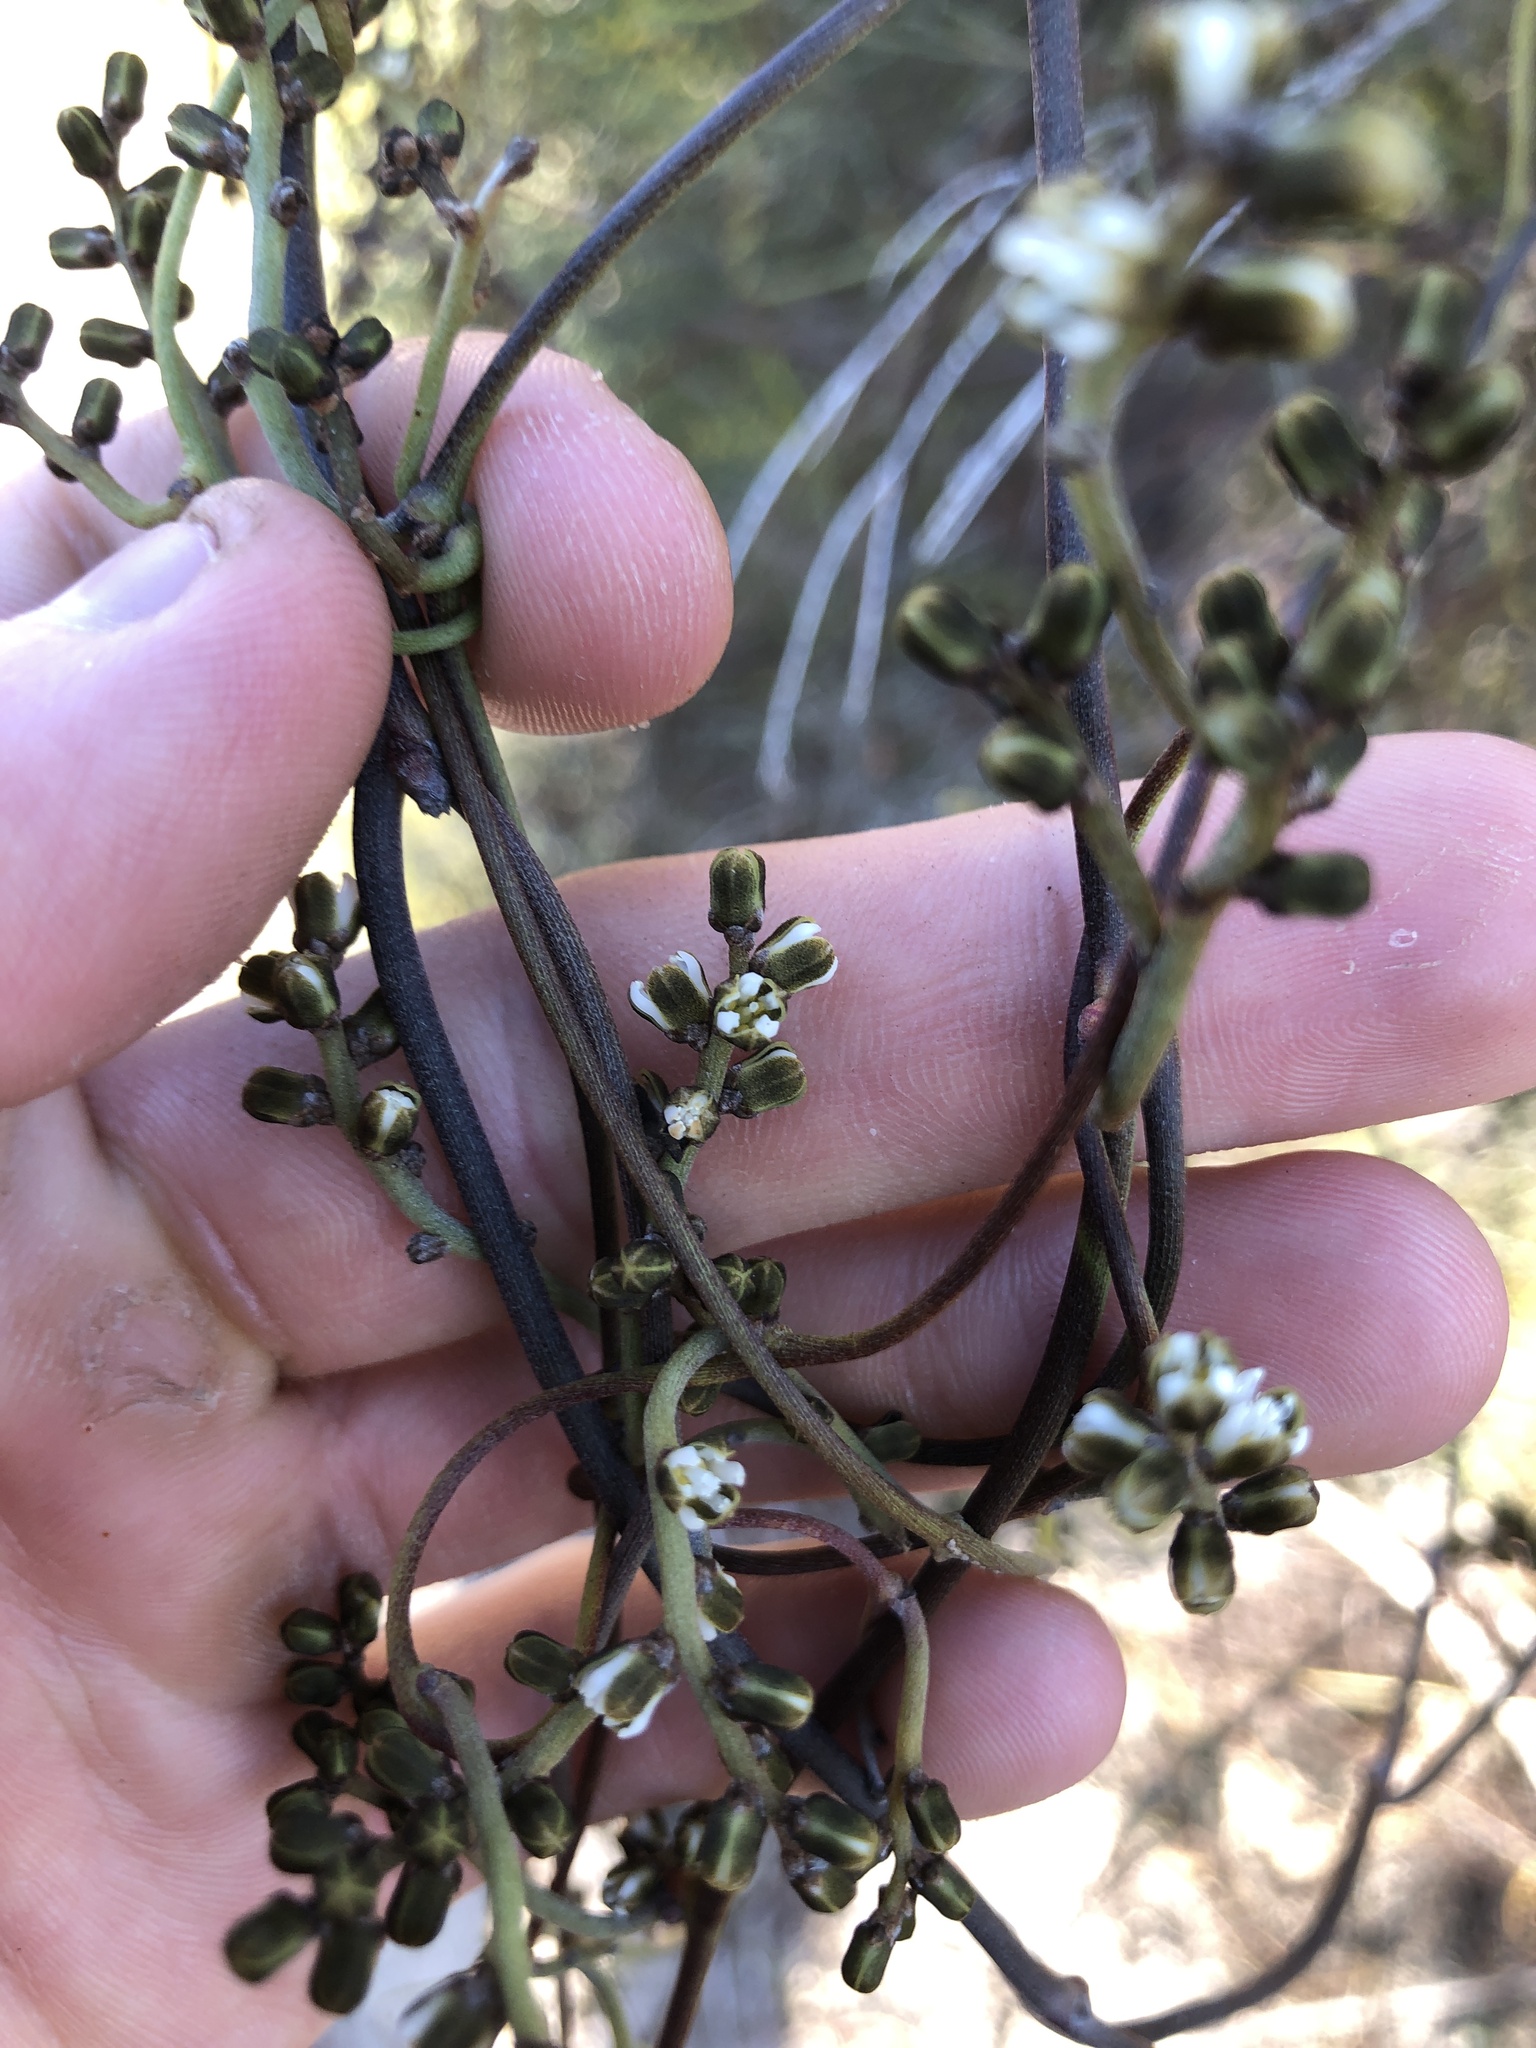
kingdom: Plantae
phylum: Tracheophyta
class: Magnoliopsida
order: Laurales
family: Lauraceae
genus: Cassytha
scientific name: Cassytha melantha
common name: Mallee stranglevine
